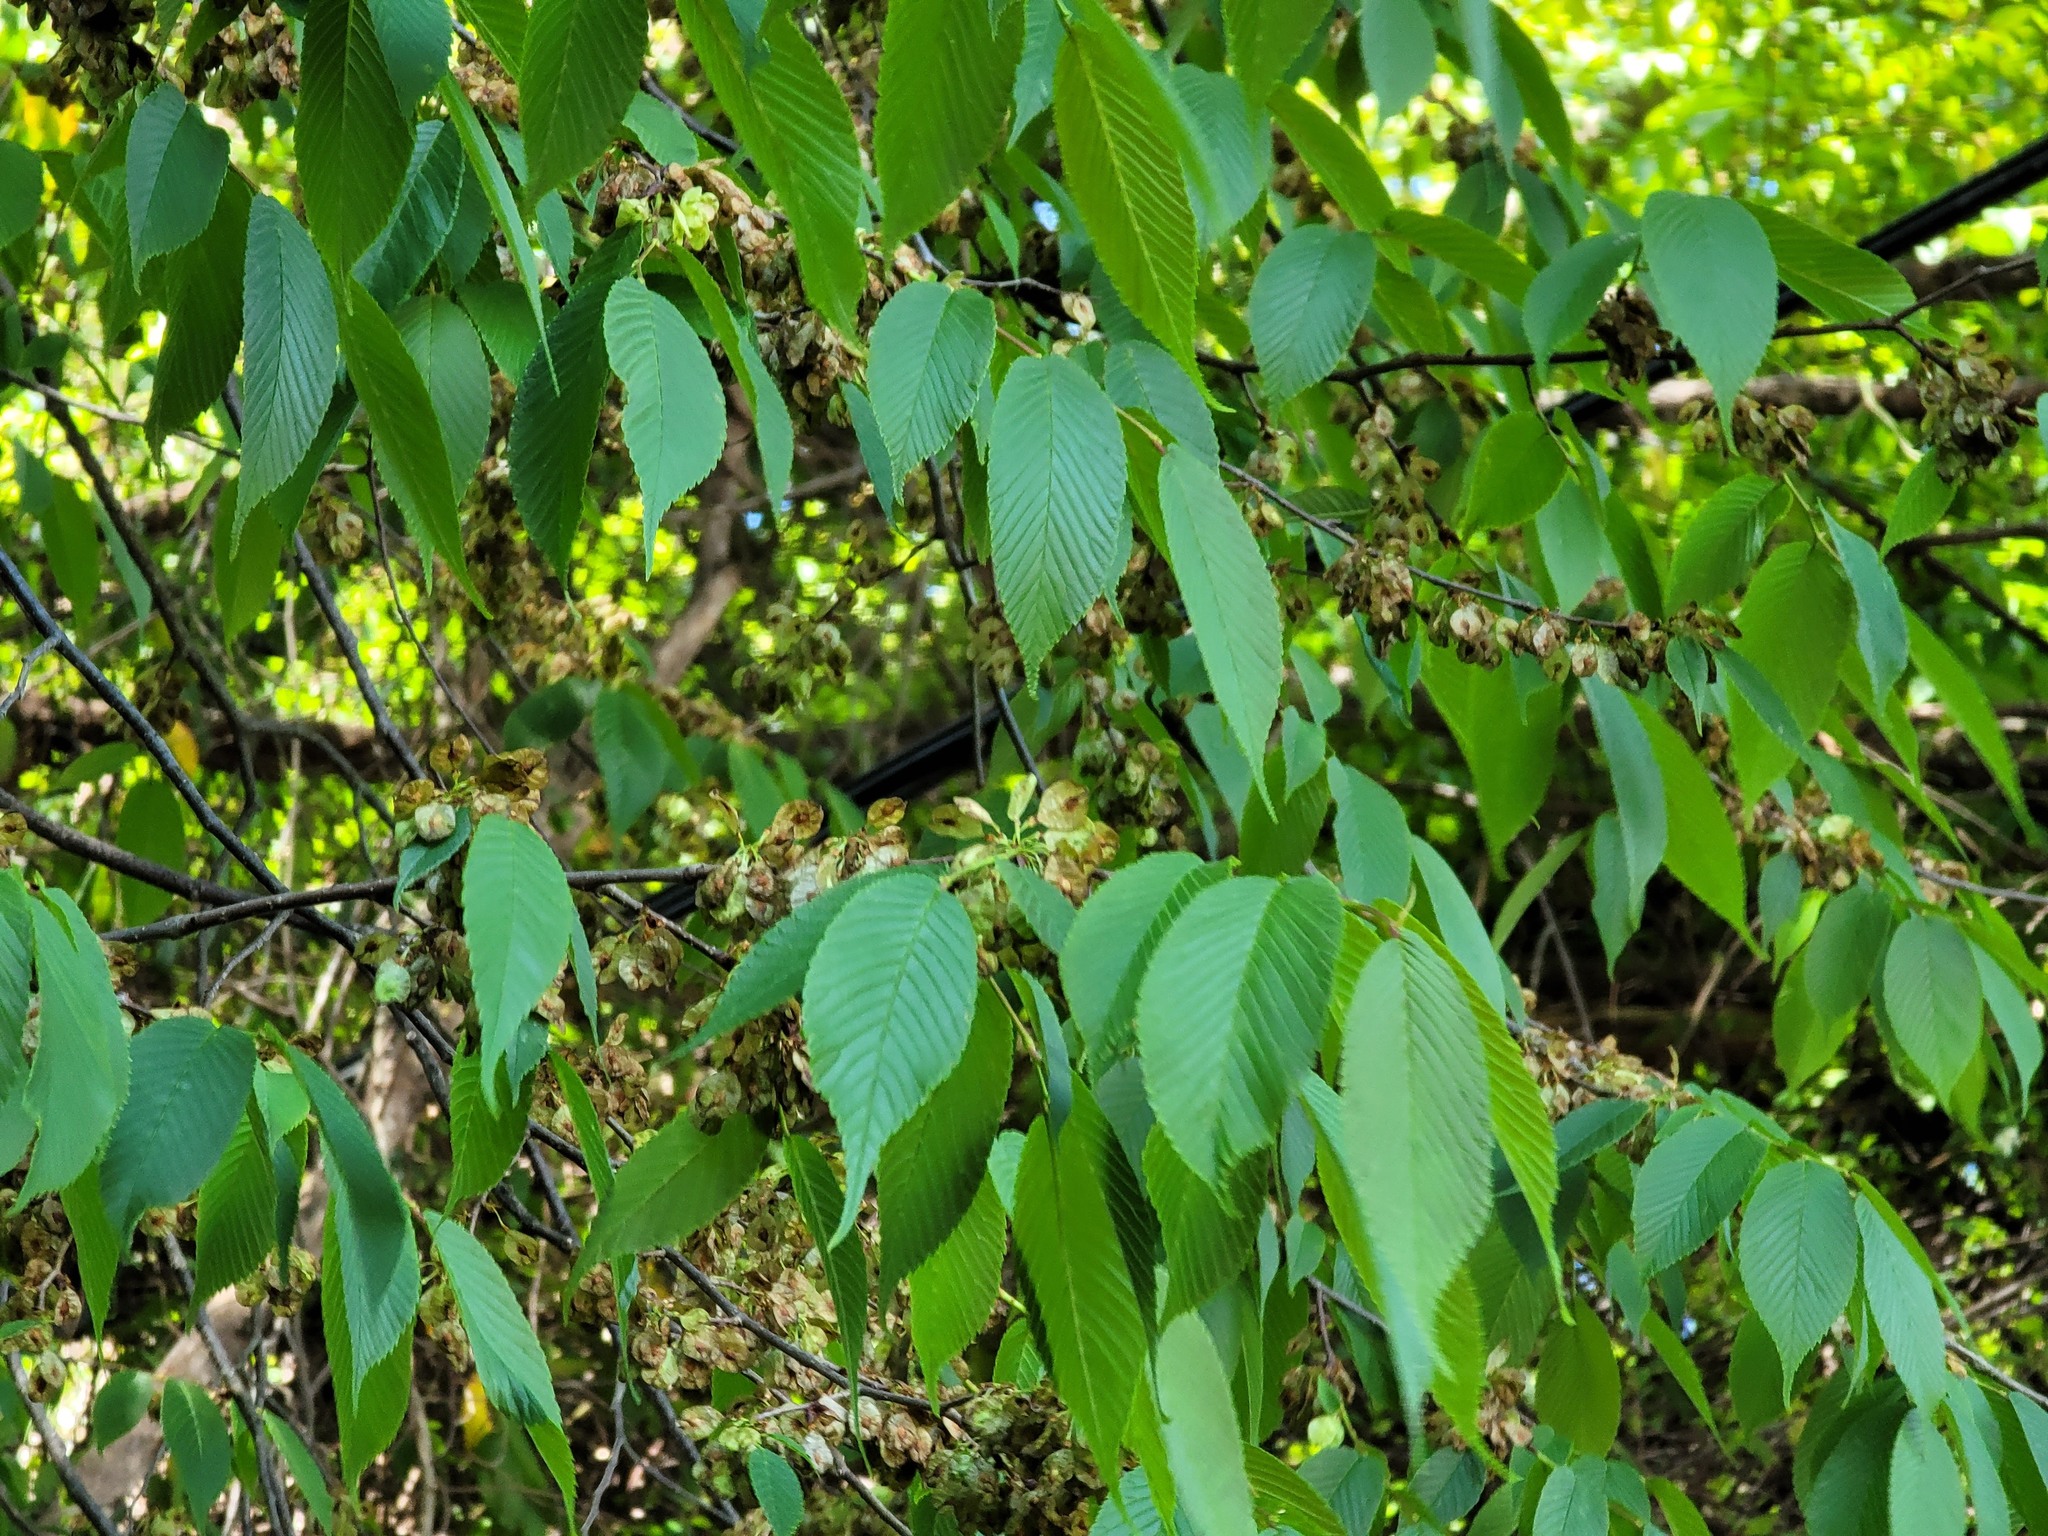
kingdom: Plantae
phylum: Tracheophyta
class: Magnoliopsida
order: Rosales
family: Ulmaceae
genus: Ulmus
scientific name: Ulmus uyematsui
